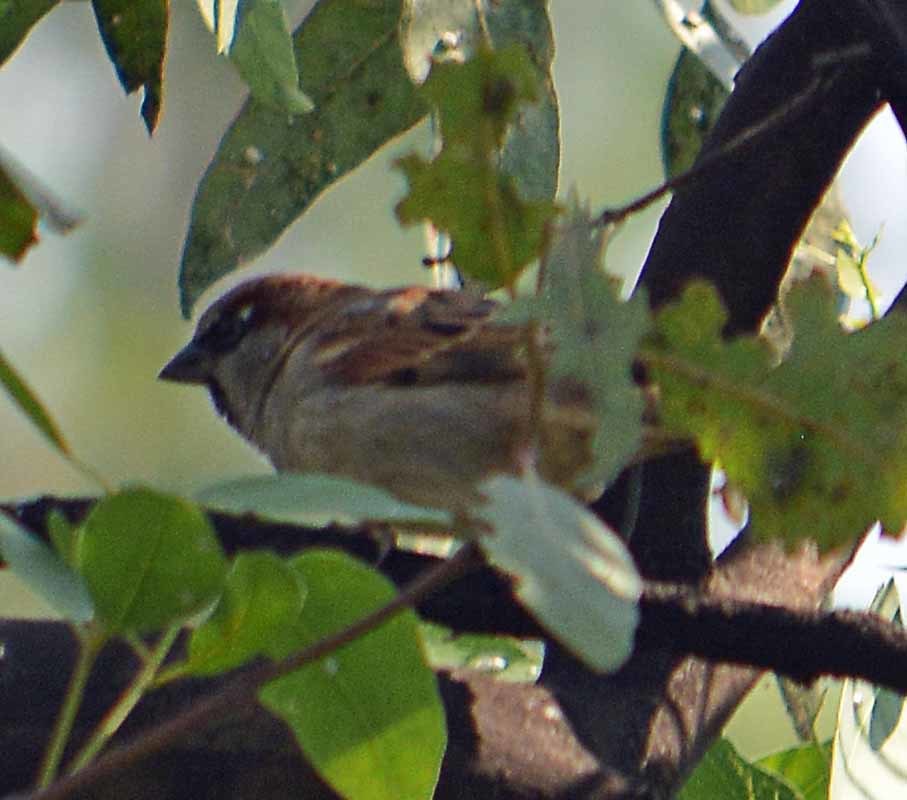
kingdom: Animalia
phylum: Chordata
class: Aves
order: Passeriformes
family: Passeridae
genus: Passer
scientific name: Passer domesticus
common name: House sparrow
